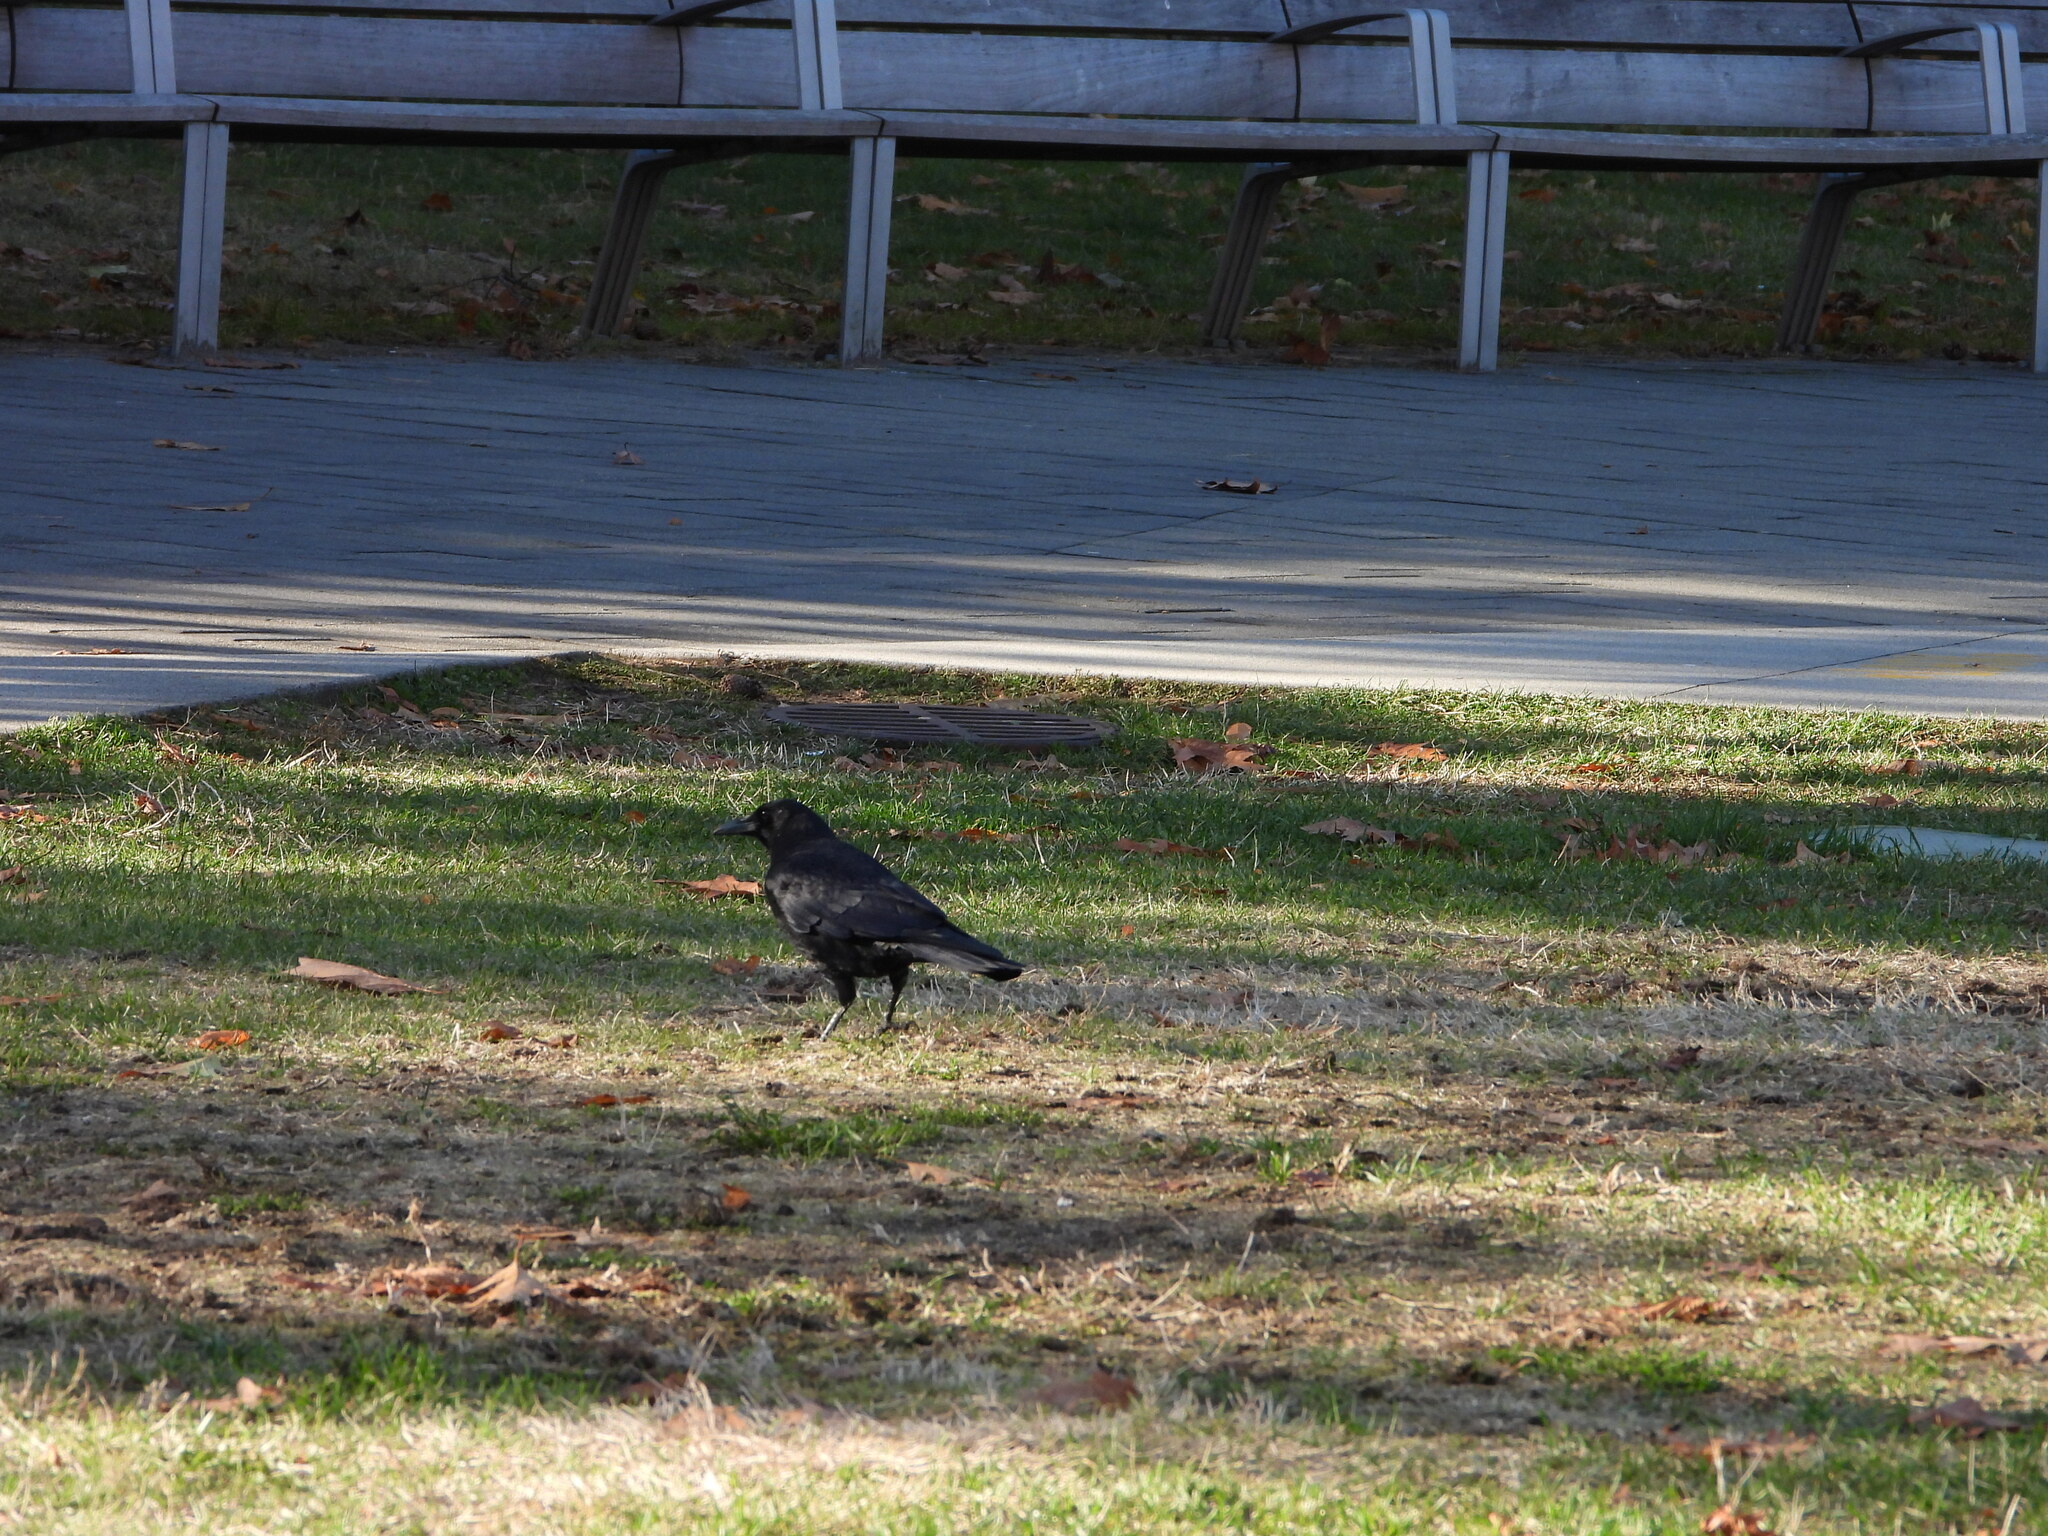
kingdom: Animalia
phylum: Chordata
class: Aves
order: Passeriformes
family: Corvidae
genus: Corvus
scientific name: Corvus brachyrhynchos
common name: American crow
